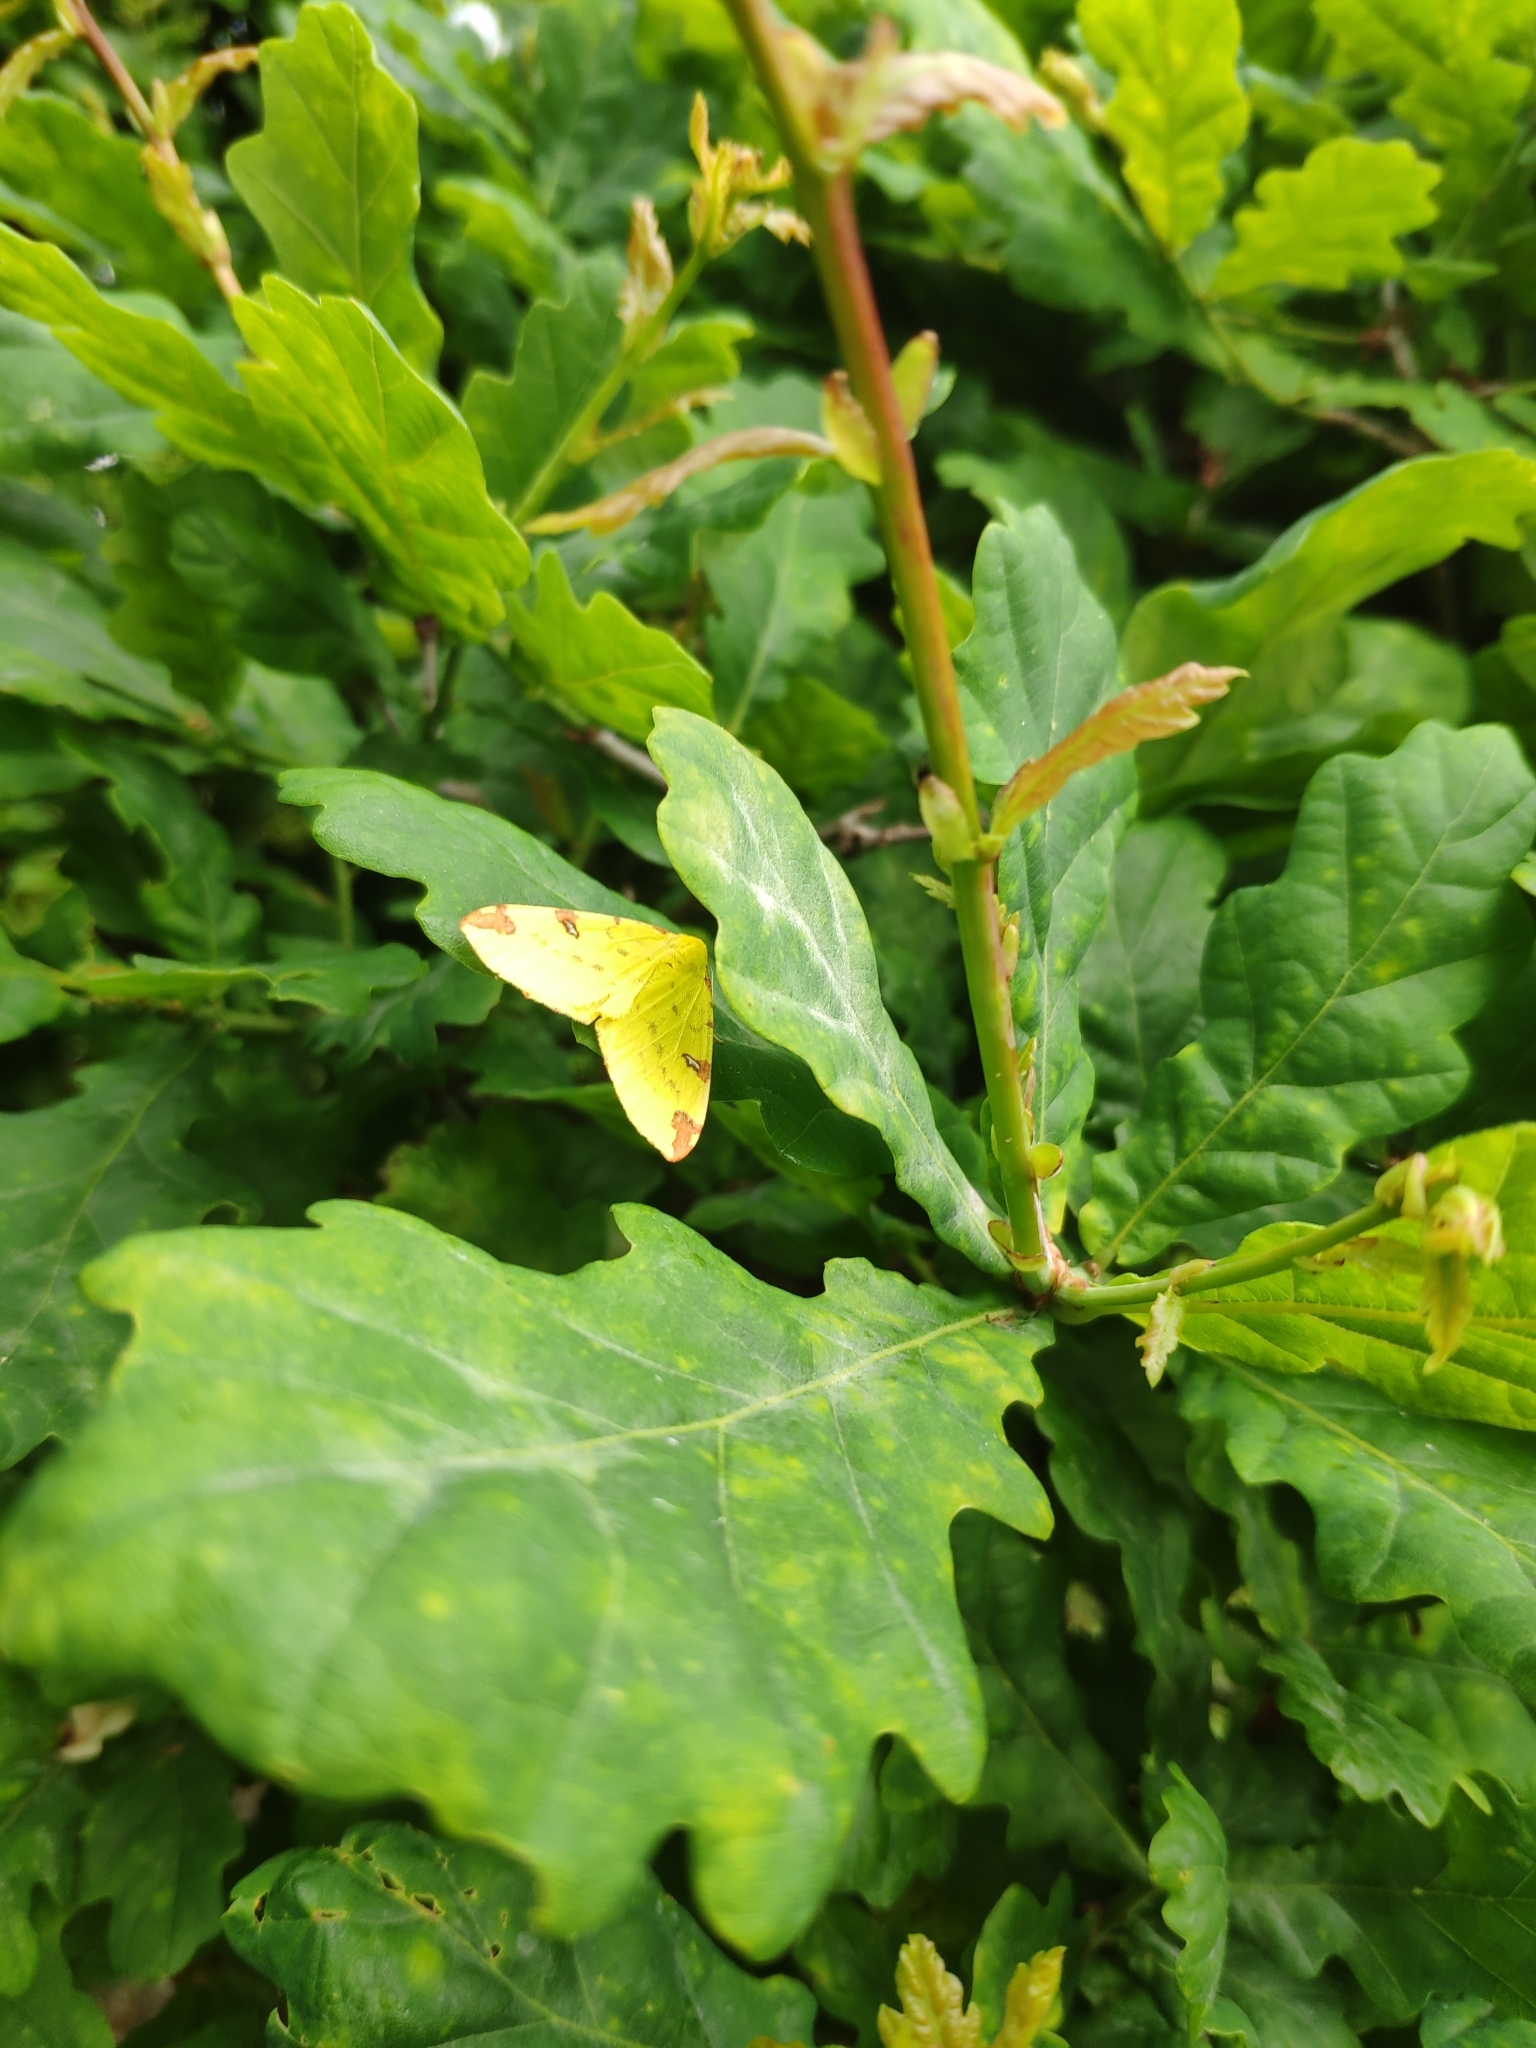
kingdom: Animalia
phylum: Arthropoda
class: Insecta
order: Lepidoptera
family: Geometridae
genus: Opisthograptis
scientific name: Opisthograptis luteolata
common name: Brimstone moth
